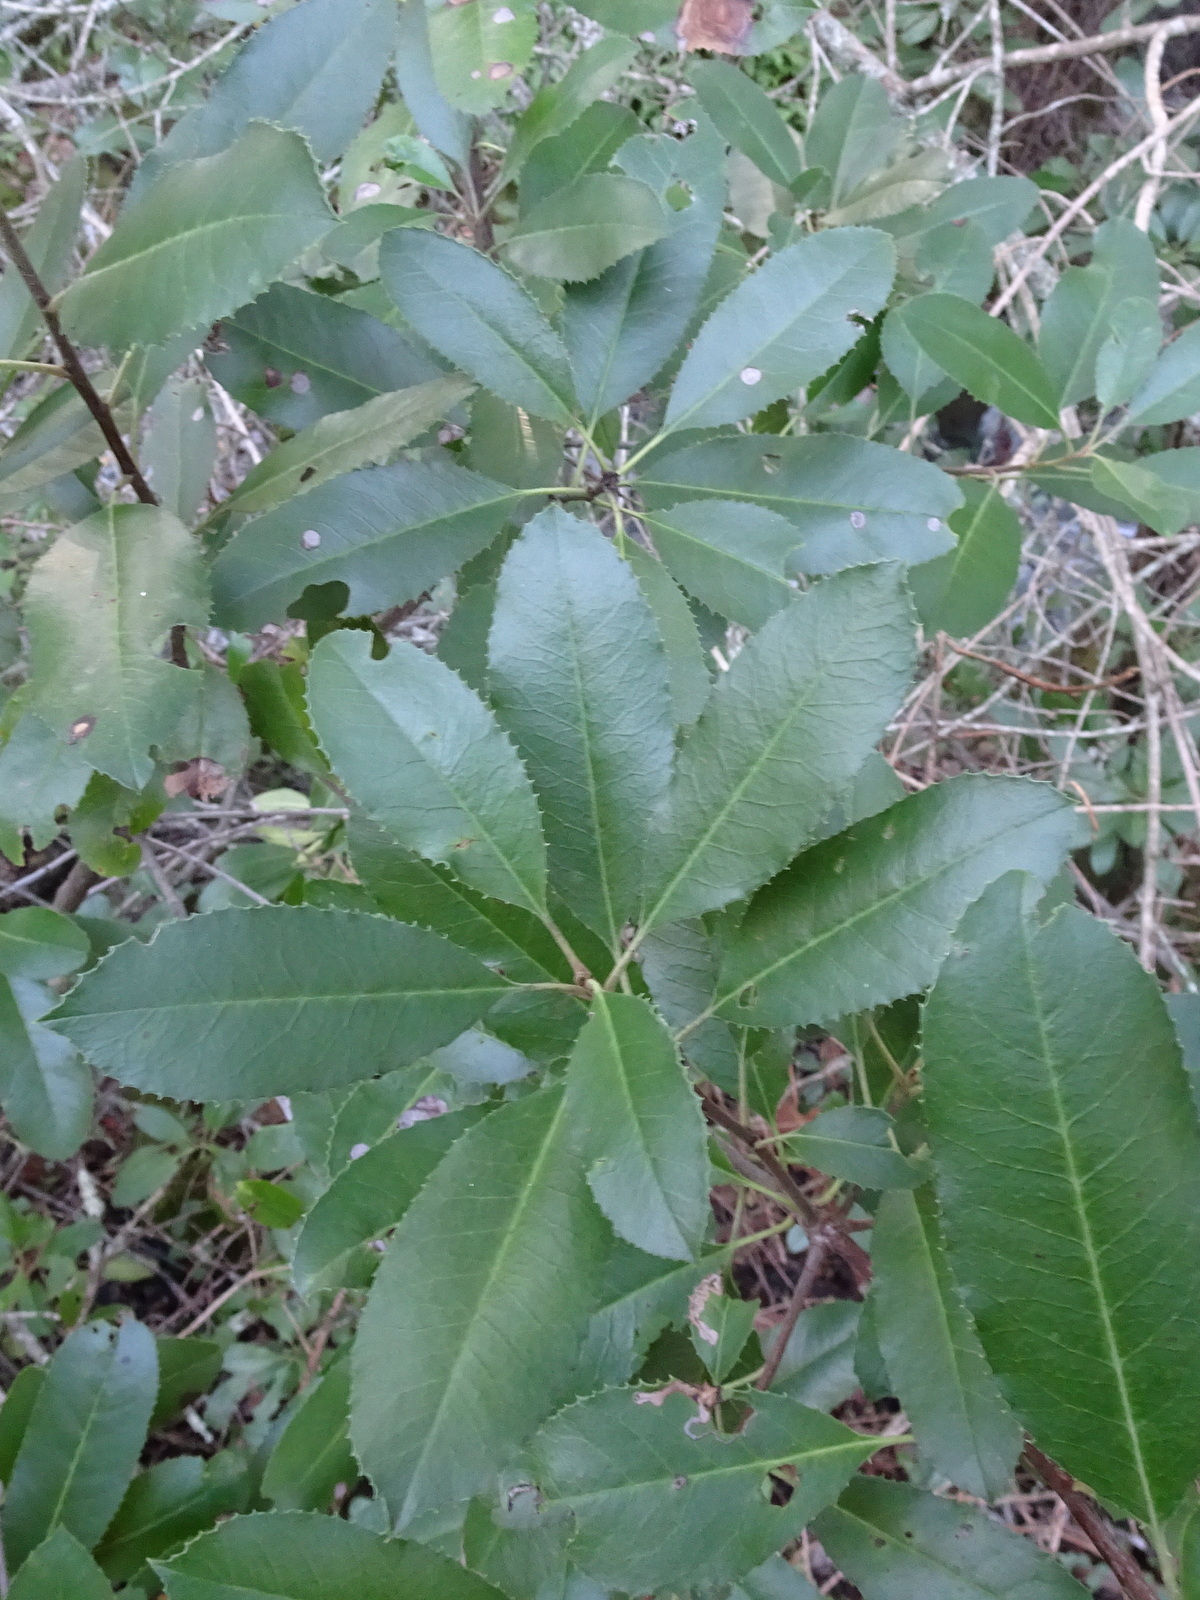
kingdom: Plantae
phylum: Tracheophyta
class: Magnoliopsida
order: Rosales
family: Rosaceae
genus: Heteromeles
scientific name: Heteromeles arbutifolia
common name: California-holly
